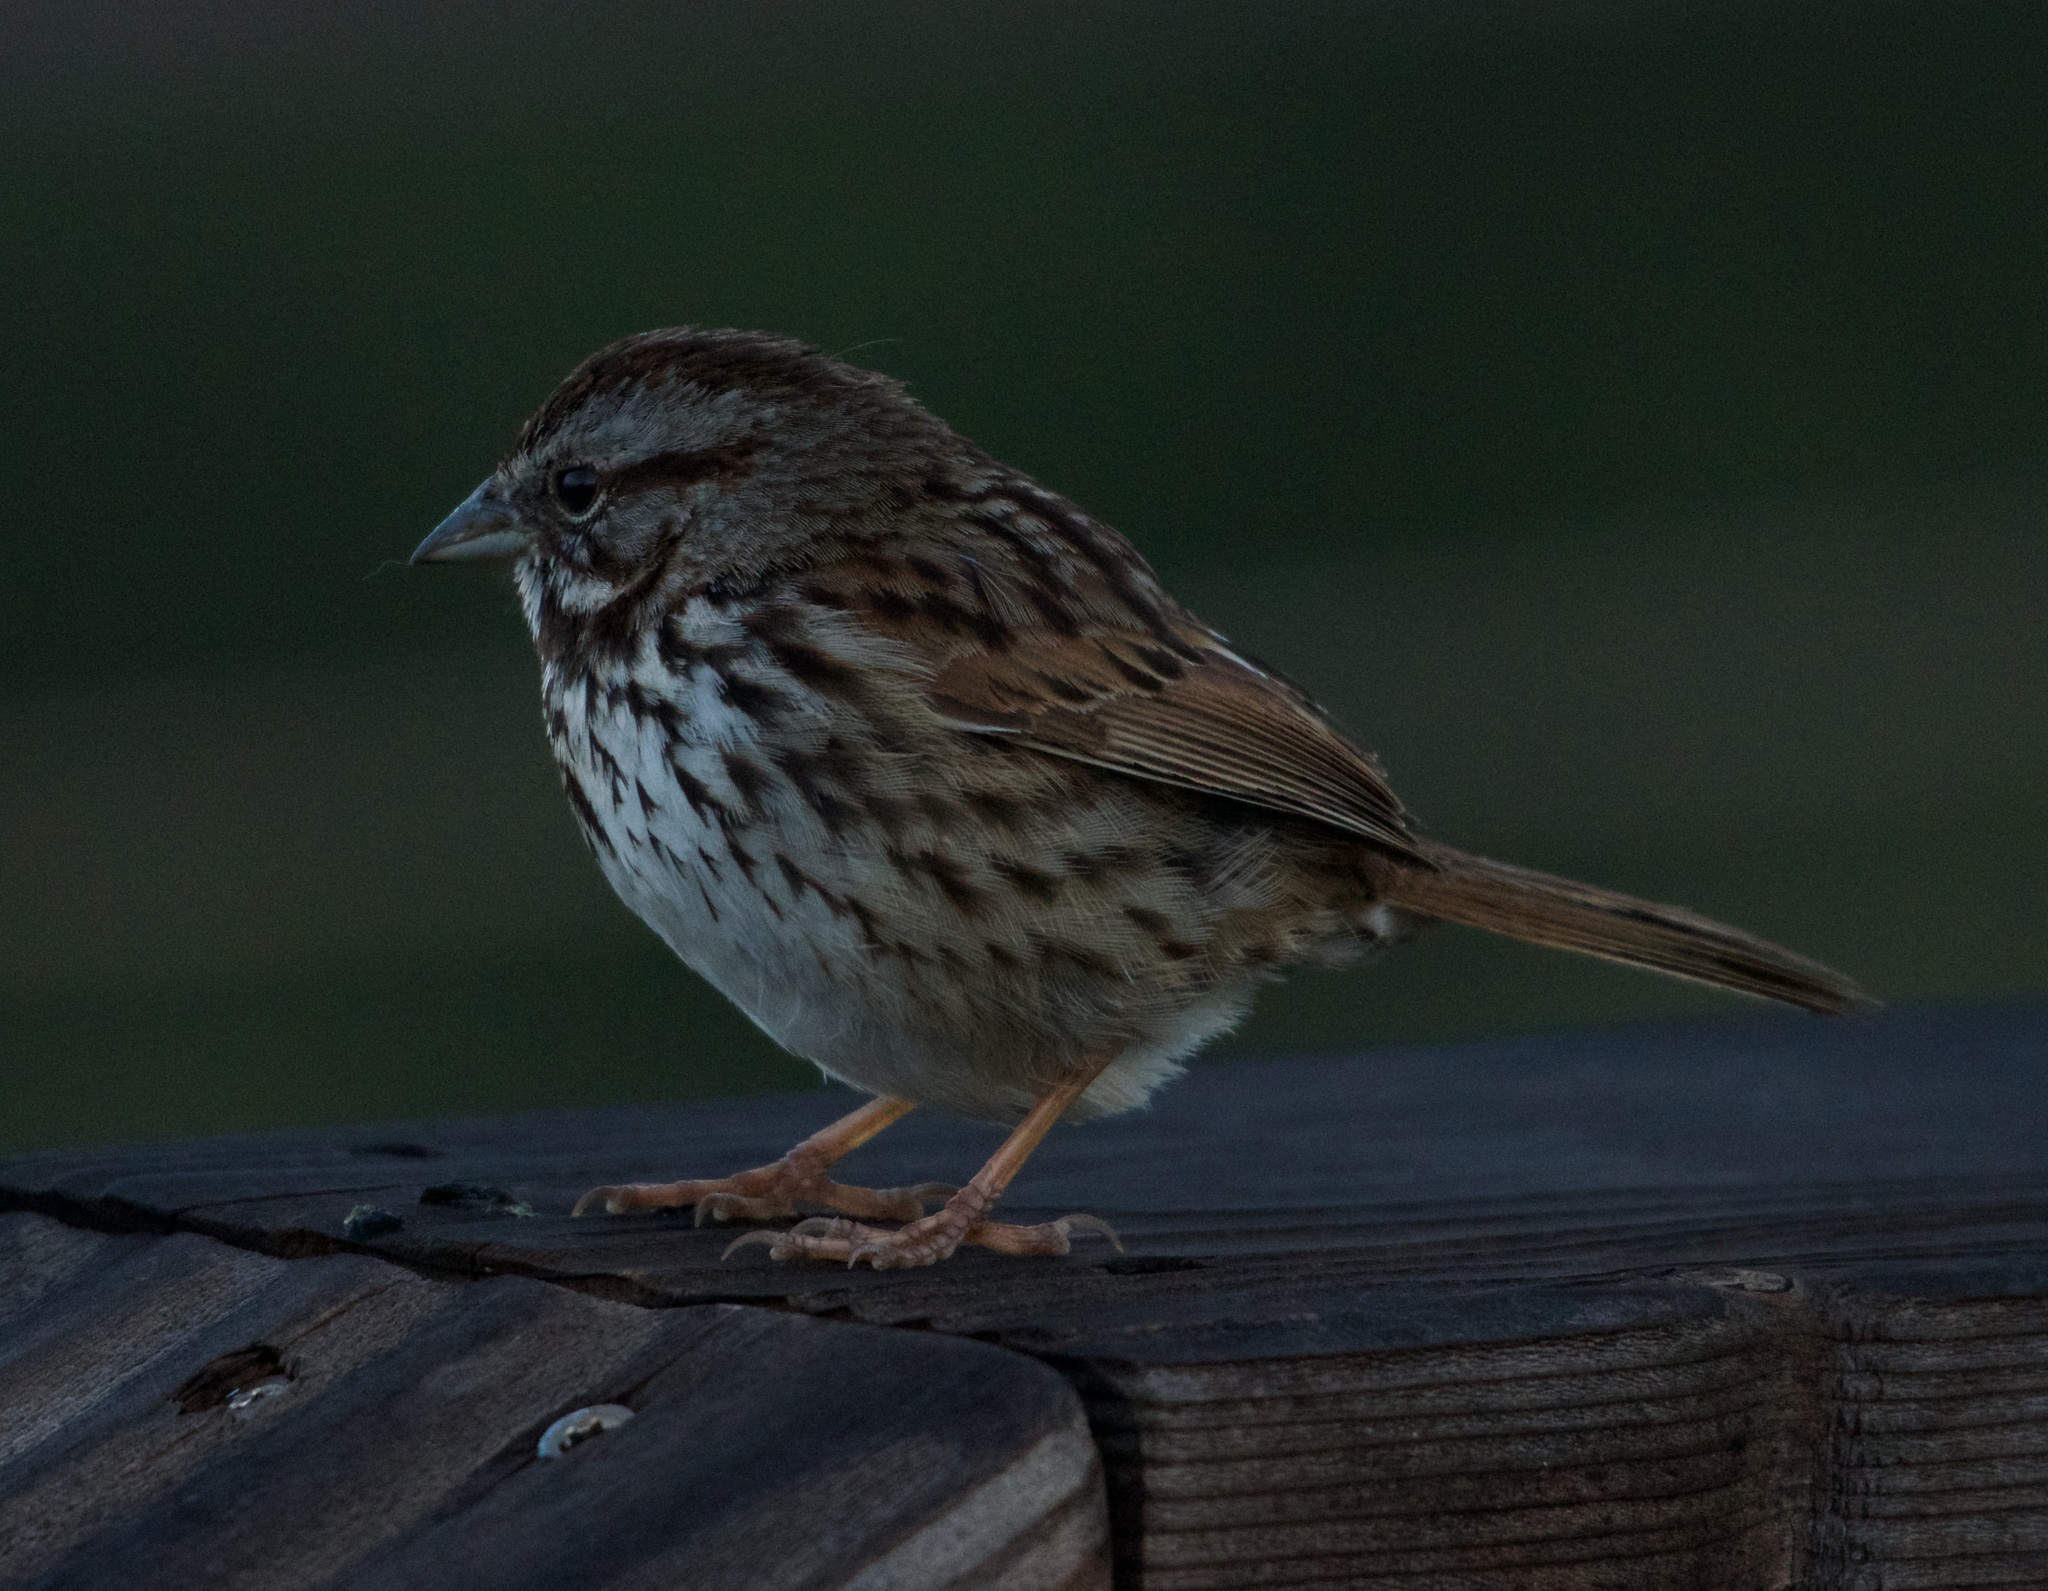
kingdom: Animalia
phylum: Chordata
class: Aves
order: Passeriformes
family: Passerellidae
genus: Melospiza
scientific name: Melospiza melodia
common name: Song sparrow
